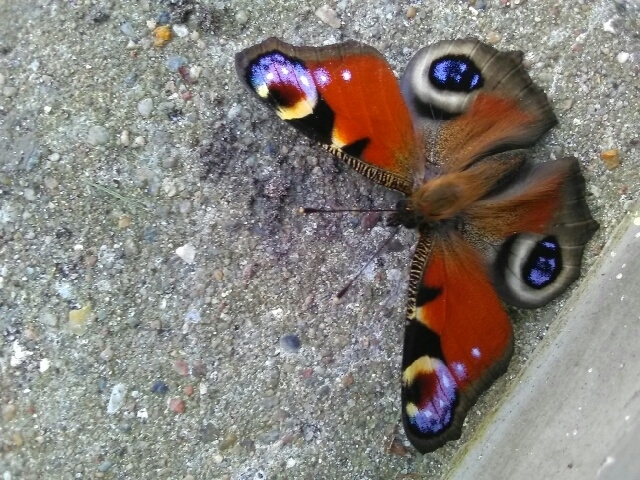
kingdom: Animalia
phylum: Arthropoda
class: Insecta
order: Lepidoptera
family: Nymphalidae
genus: Aglais
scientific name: Aglais io
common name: Peacock
